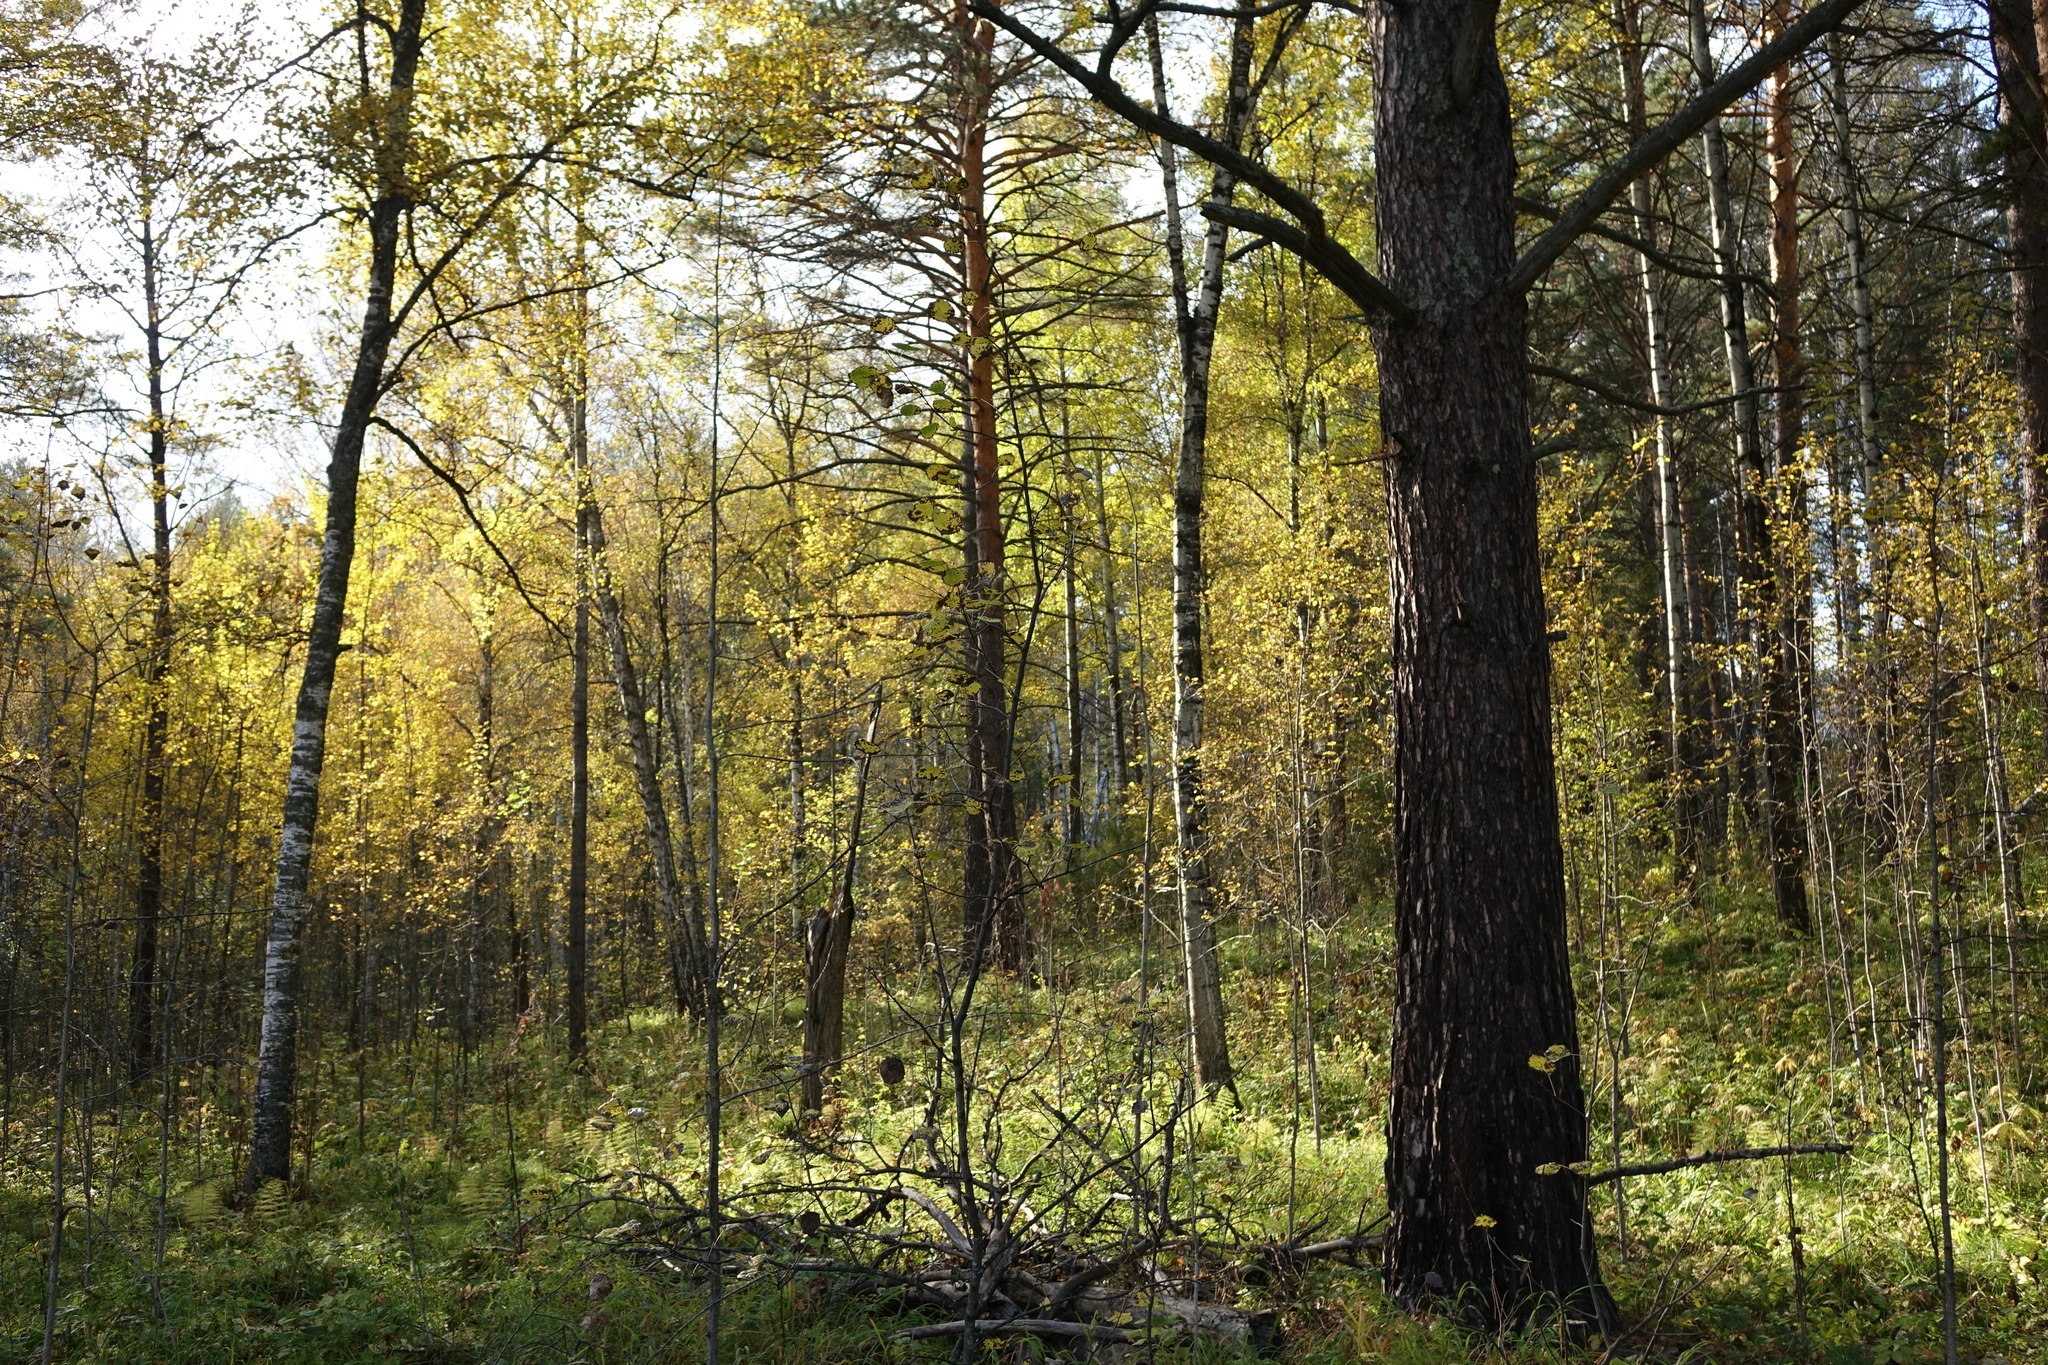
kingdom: Plantae
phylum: Tracheophyta
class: Pinopsida
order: Pinales
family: Pinaceae
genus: Pinus
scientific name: Pinus sylvestris
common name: Scots pine
